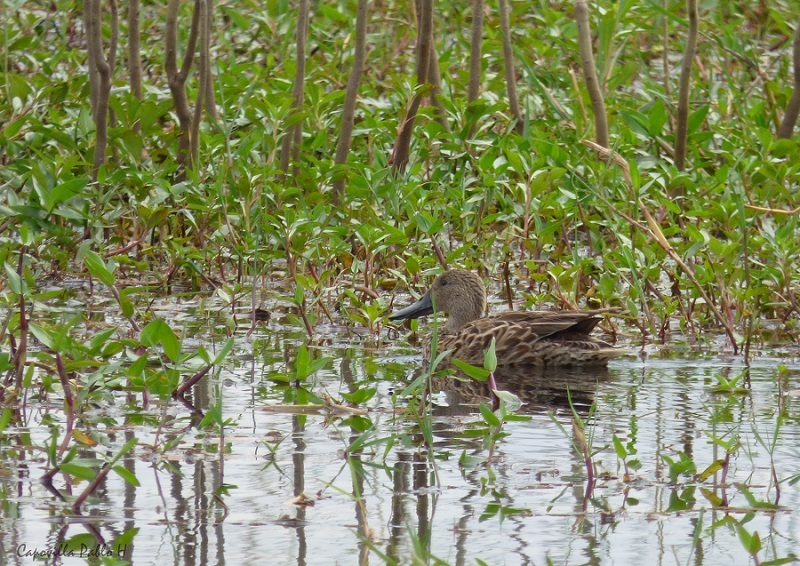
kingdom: Animalia
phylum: Chordata
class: Aves
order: Anseriformes
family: Anatidae
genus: Spatula
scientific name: Spatula cyanoptera
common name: Cinnamon teal
